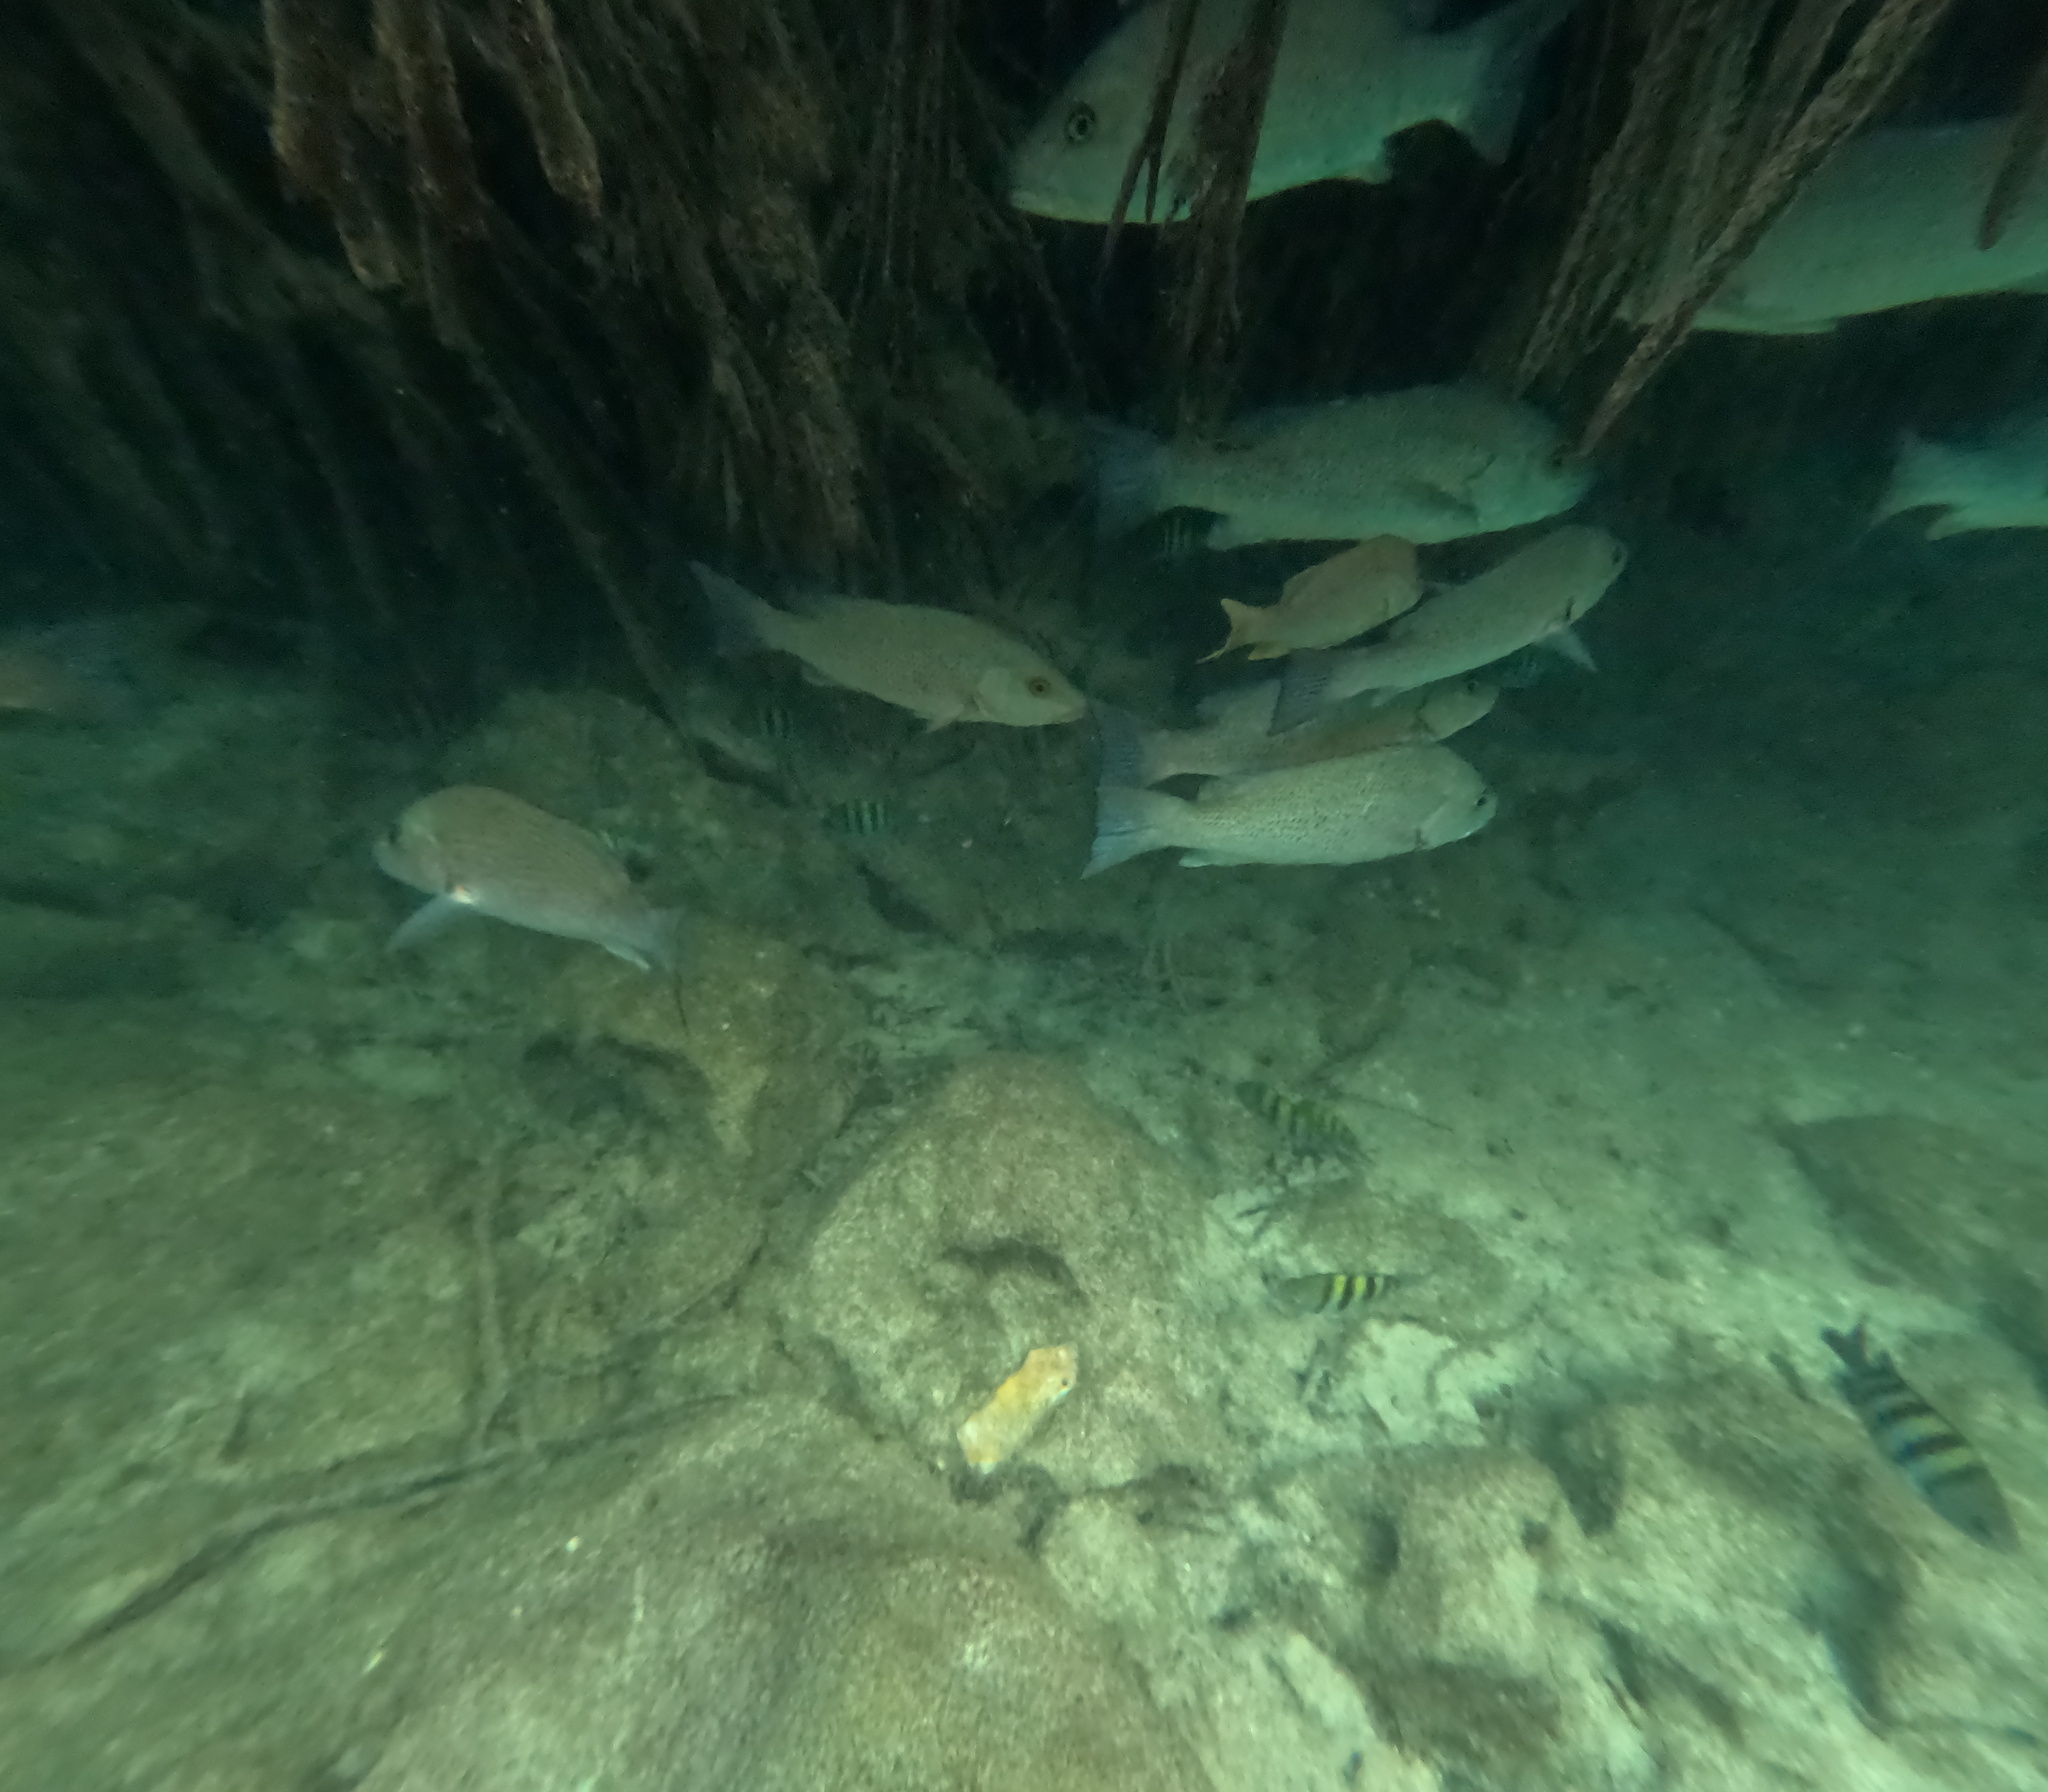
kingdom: Animalia
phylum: Chordata
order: Perciformes
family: Lutjanidae
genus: Lutjanus
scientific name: Lutjanus griseus
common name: Gray snapper
